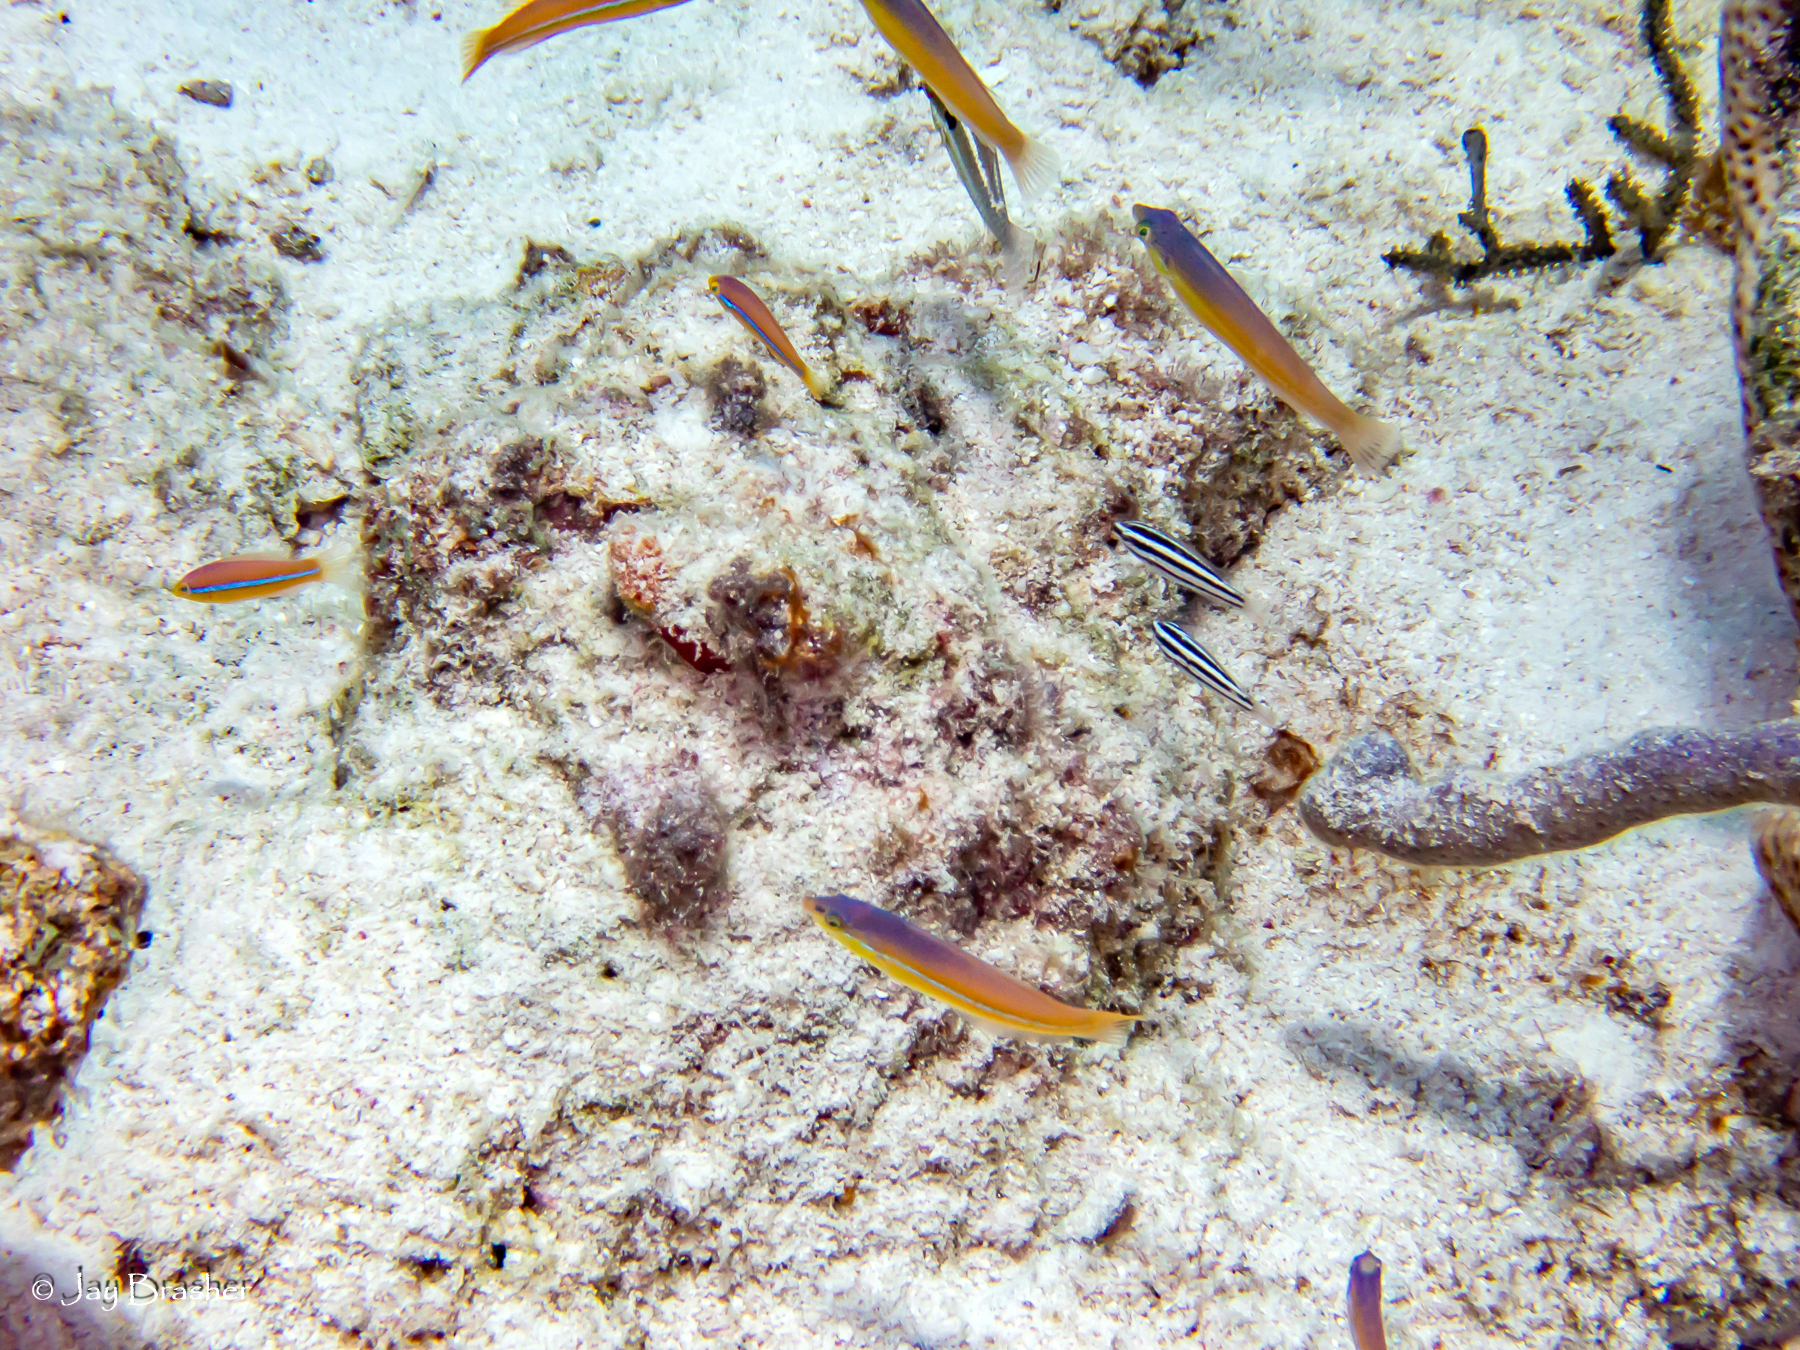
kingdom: Animalia
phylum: Chordata
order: Perciformes
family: Labridae
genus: Halichoeres
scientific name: Halichoeres garnoti
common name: Yellowhead wrasse
